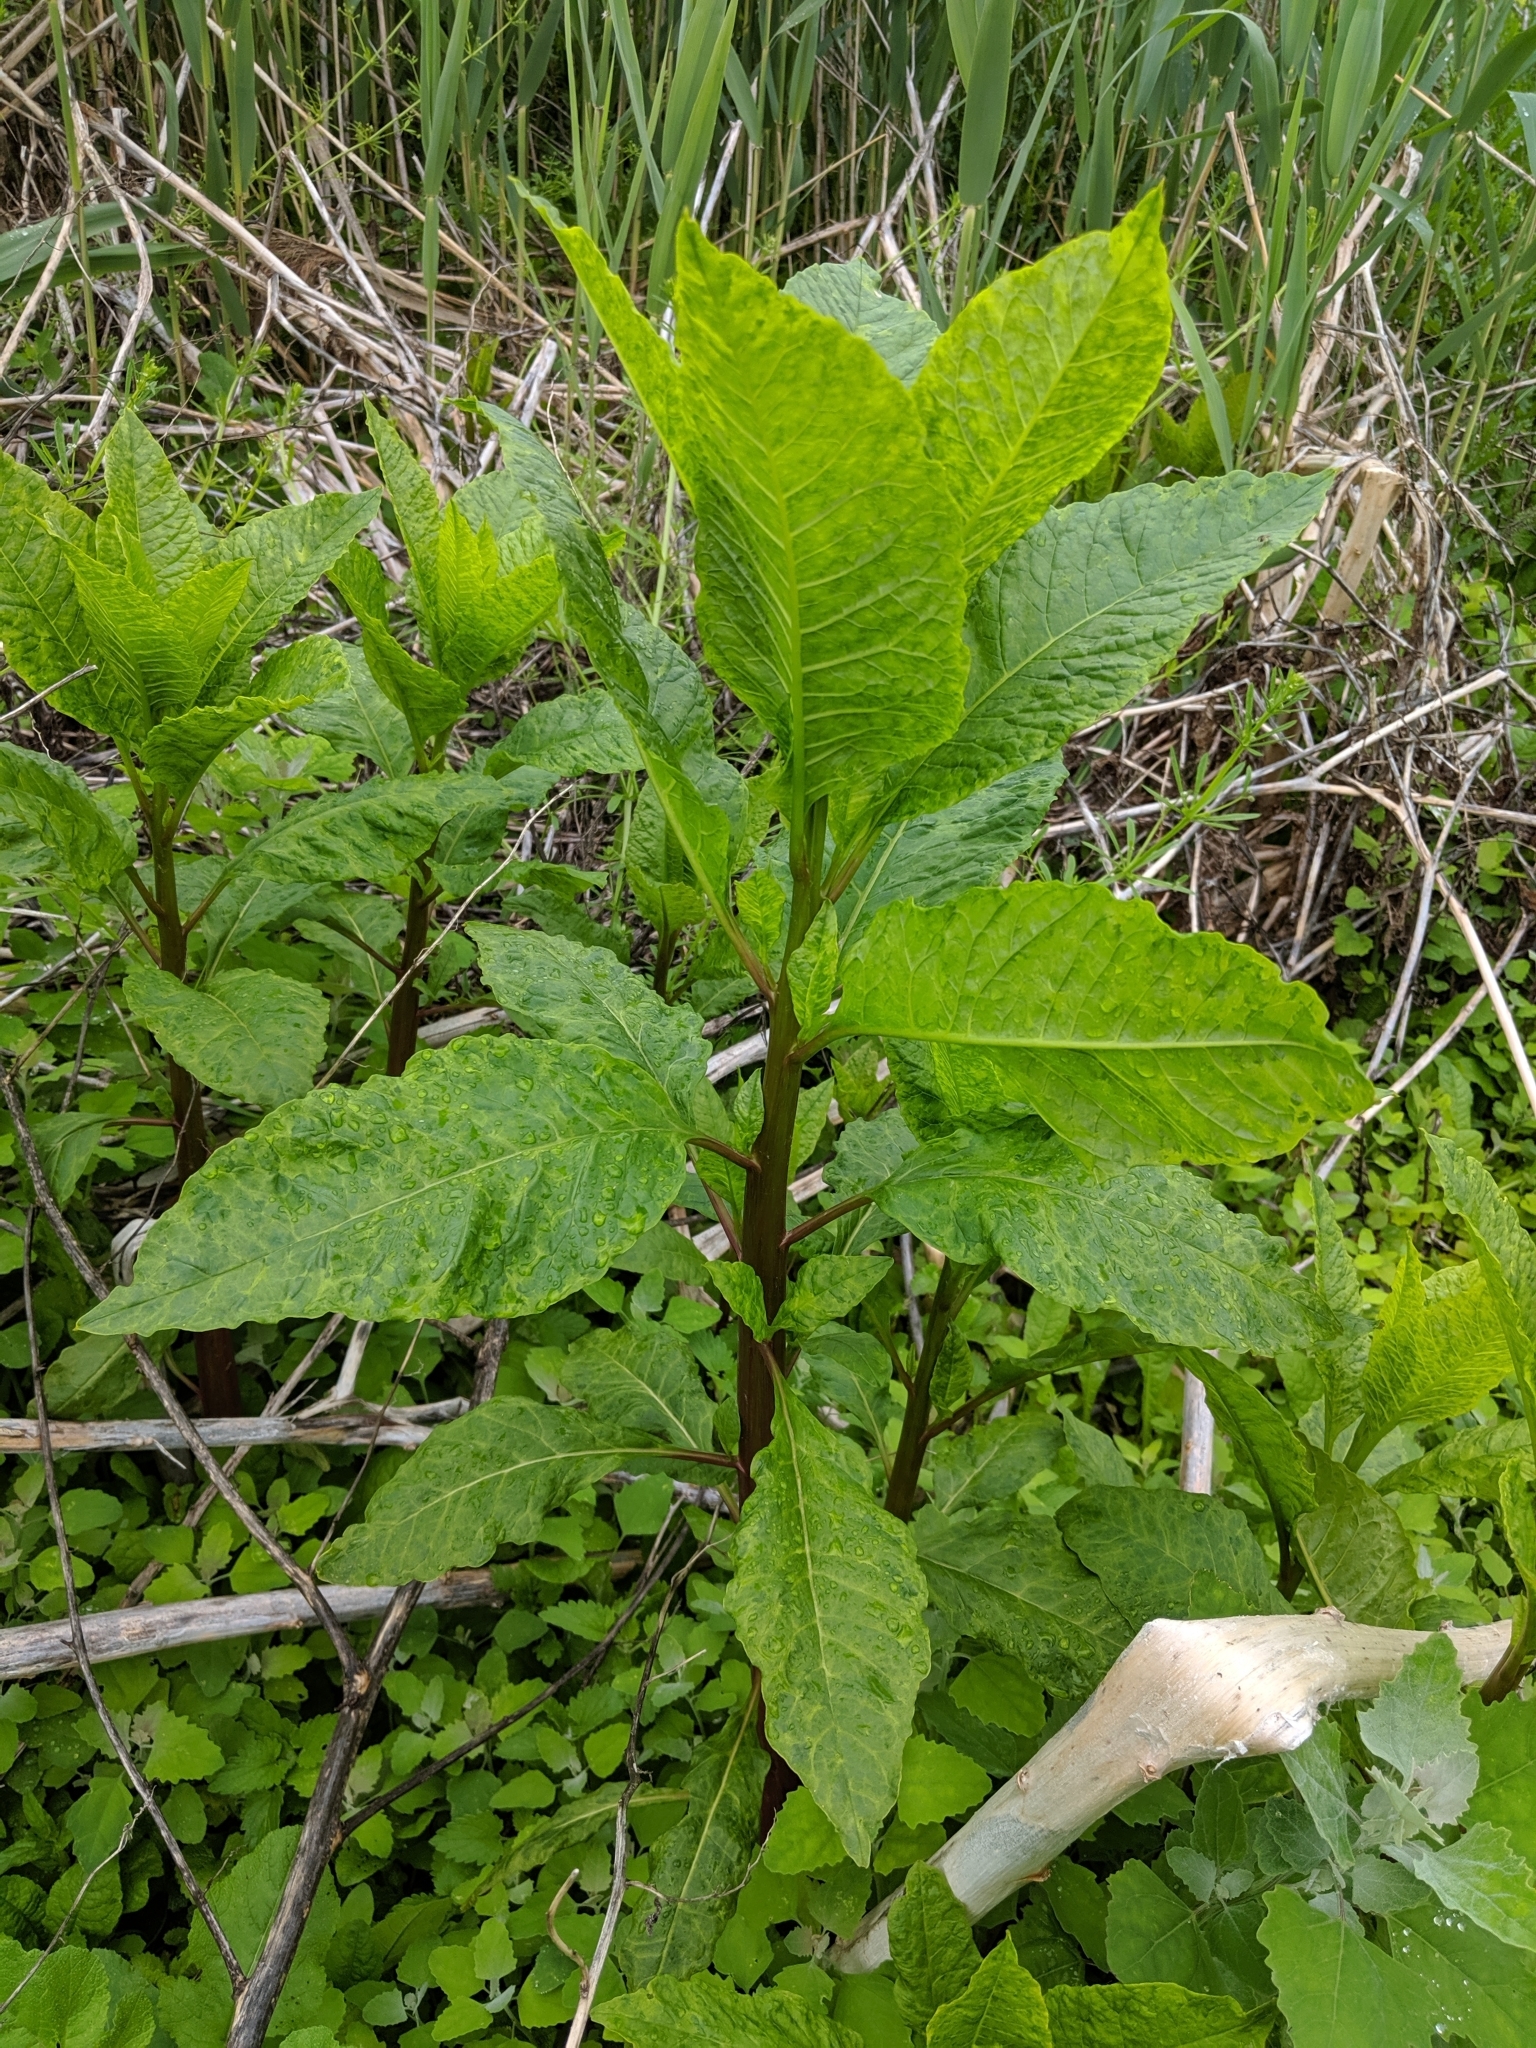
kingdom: Plantae
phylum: Tracheophyta
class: Magnoliopsida
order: Caryophyllales
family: Phytolaccaceae
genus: Phytolacca
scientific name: Phytolacca americana
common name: American pokeweed
